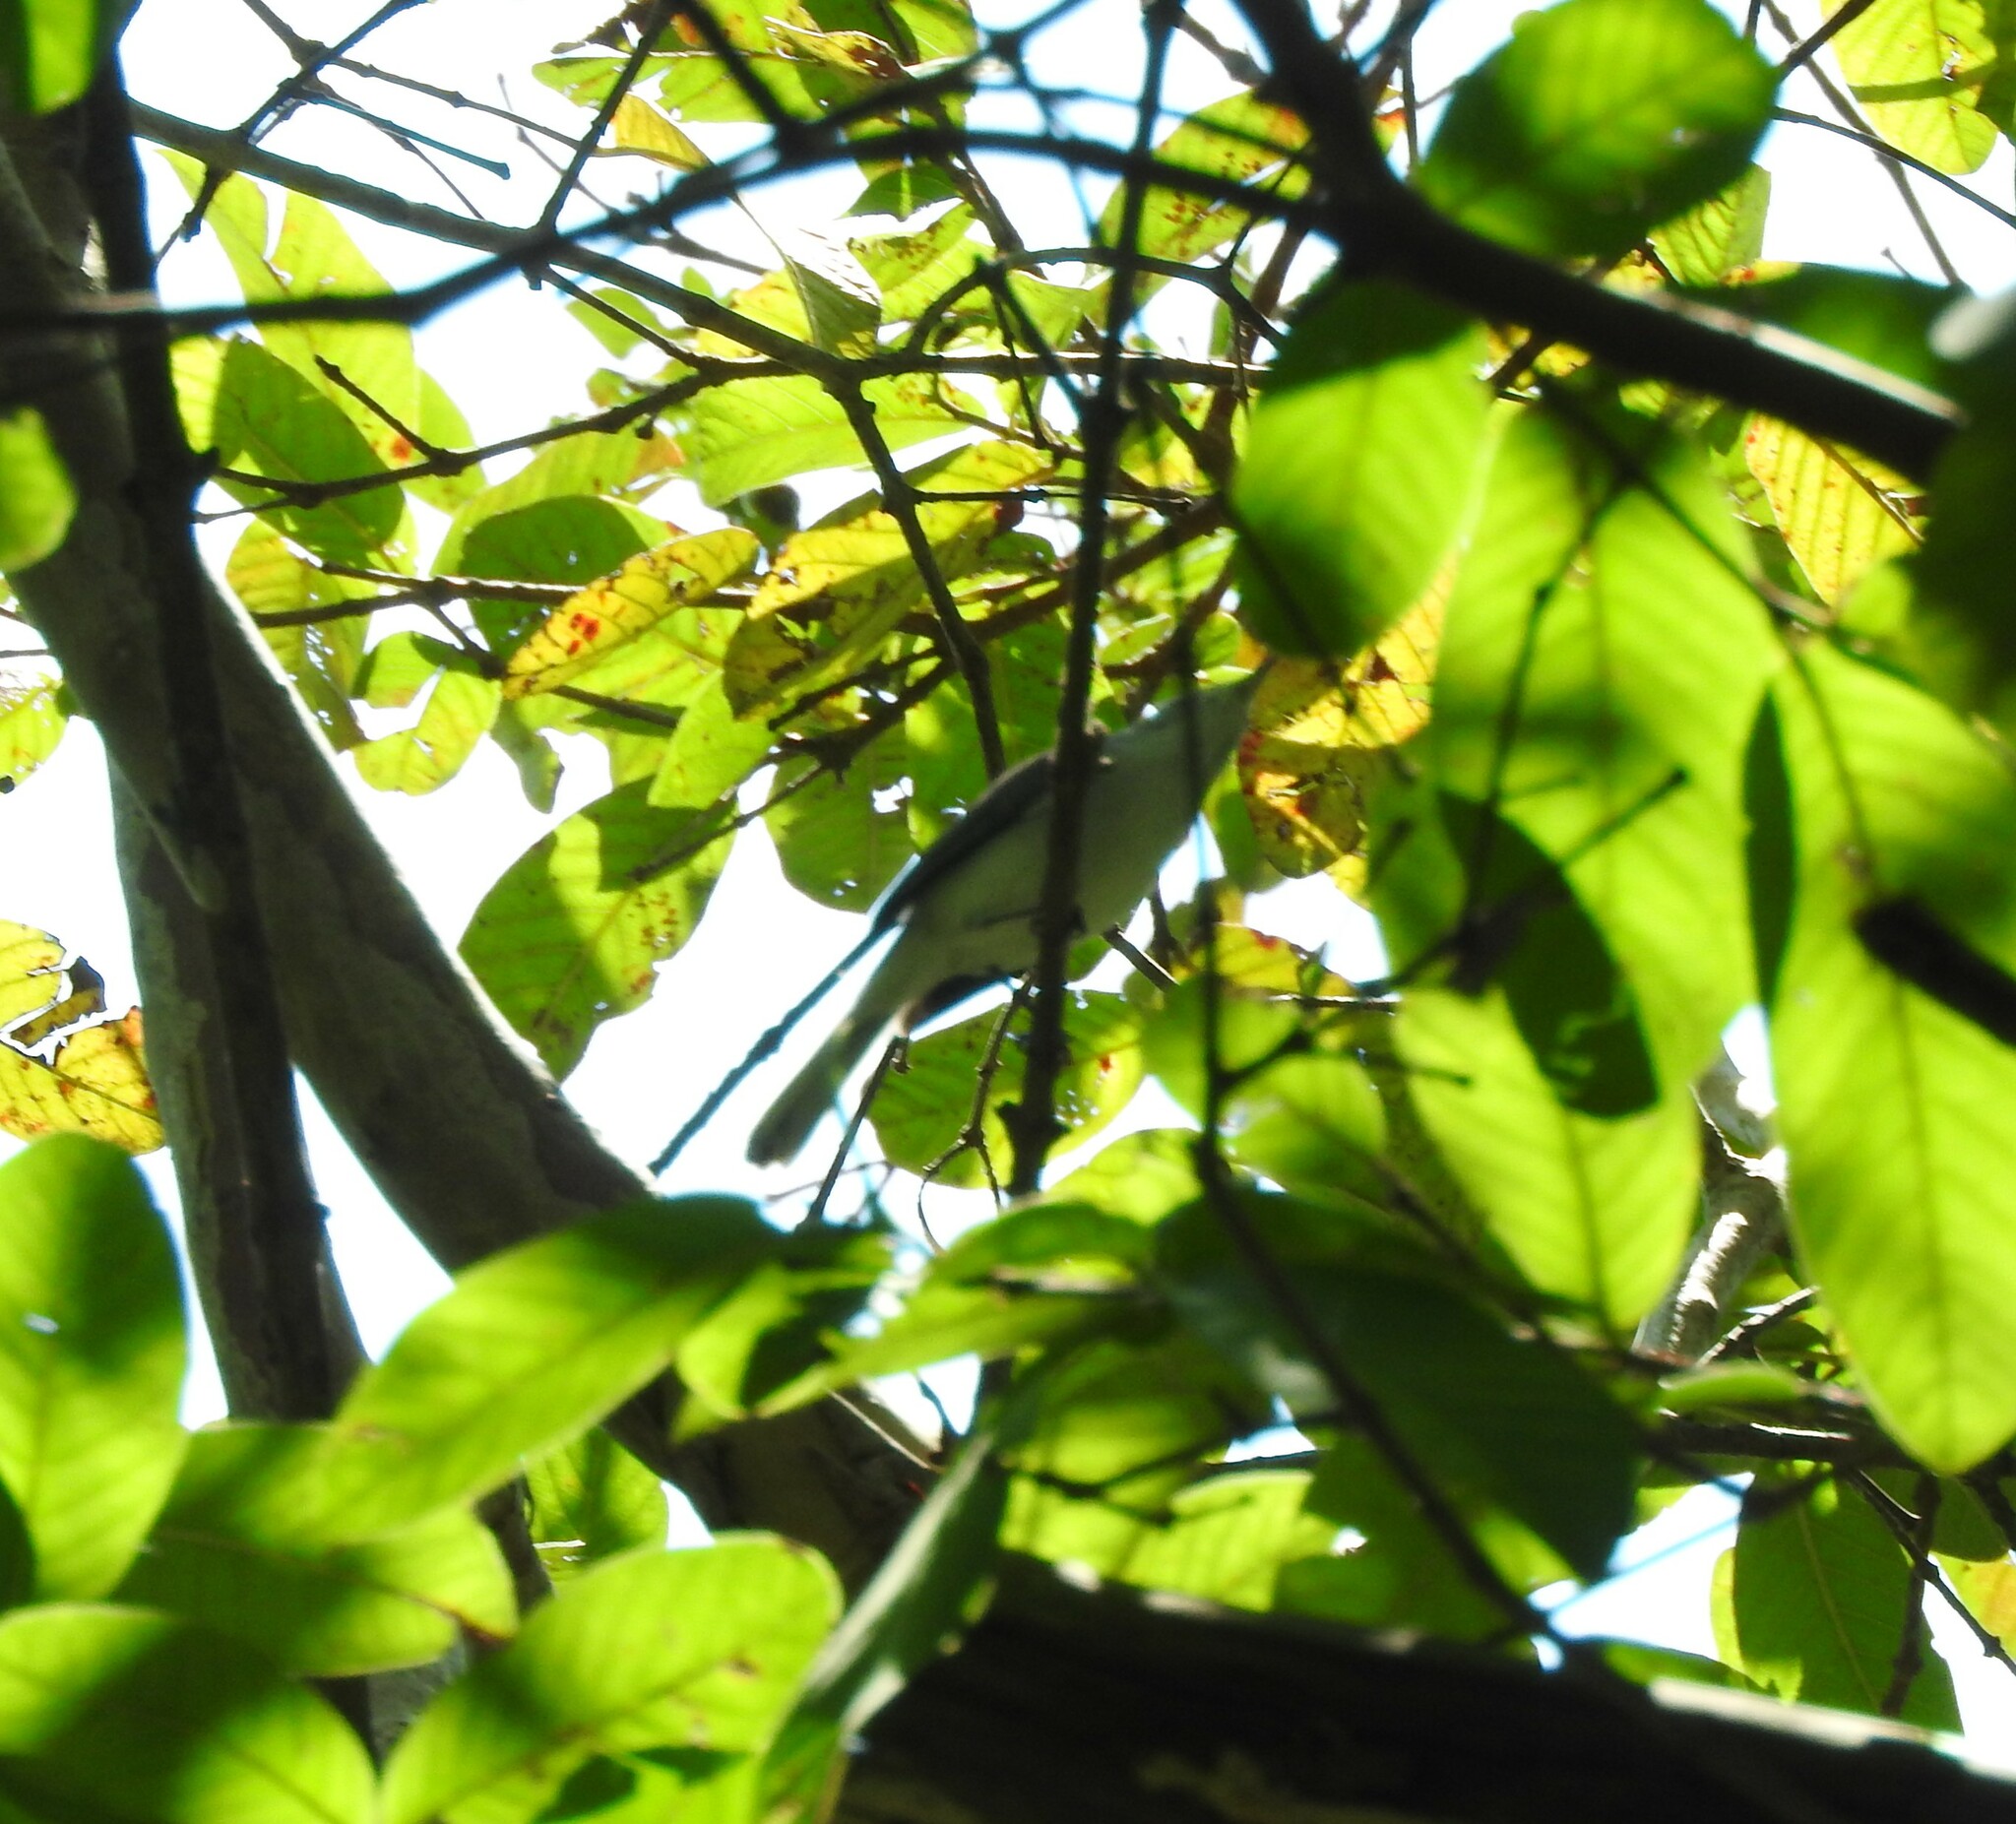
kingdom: Animalia
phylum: Chordata
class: Aves
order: Passeriformes
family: Polioptilidae
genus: Polioptila
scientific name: Polioptila caerulea
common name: Blue-gray gnatcatcher
